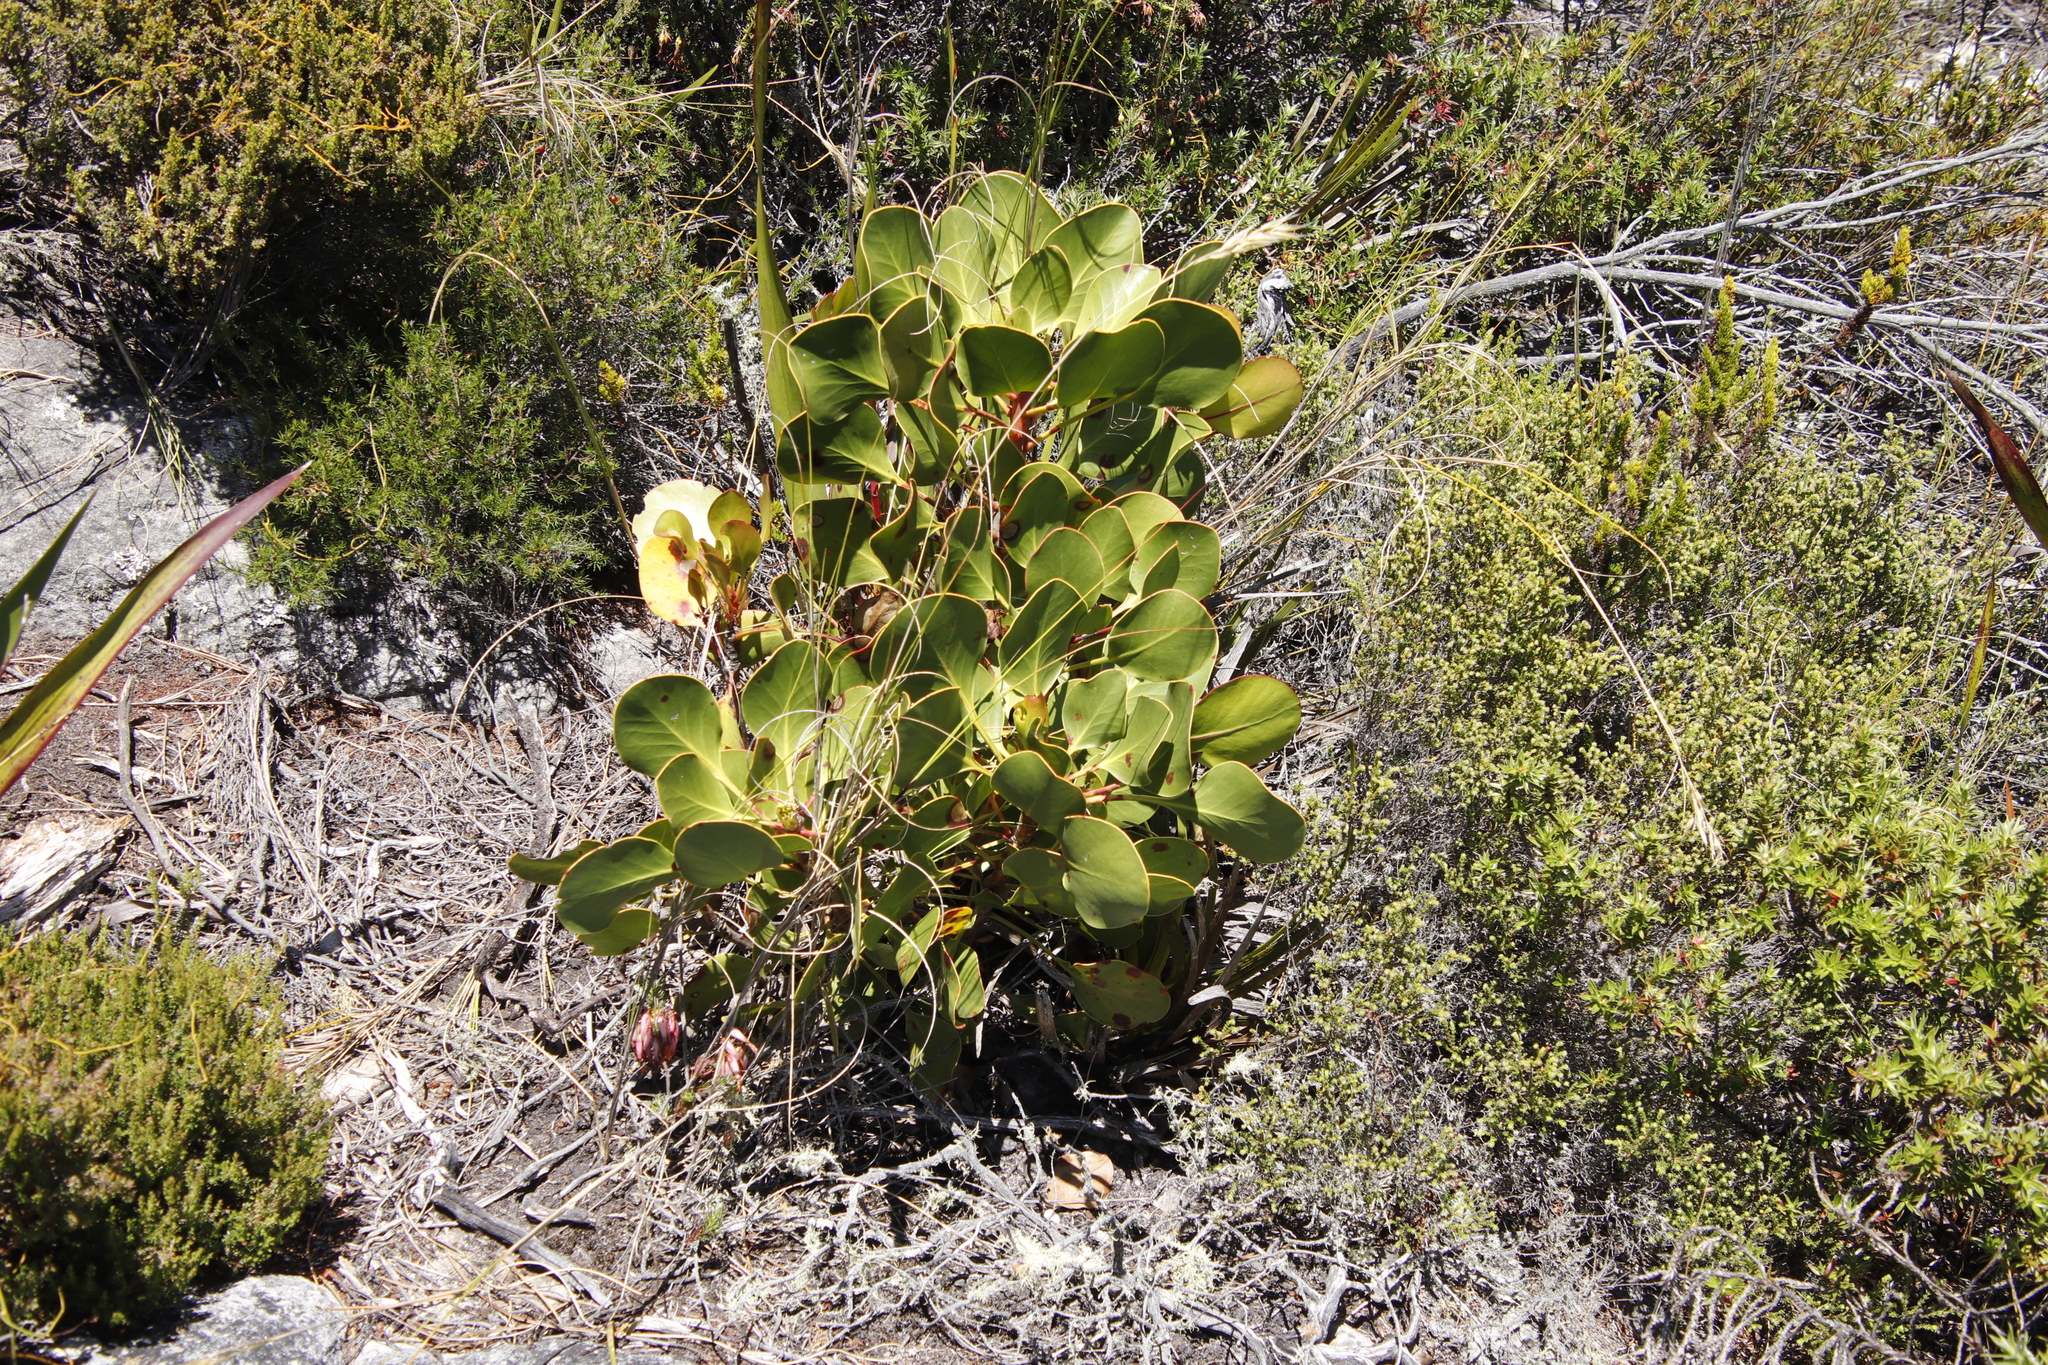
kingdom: Plantae
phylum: Tracheophyta
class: Magnoliopsida
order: Proteales
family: Proteaceae
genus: Protea
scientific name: Protea cynaroides
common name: King protea
